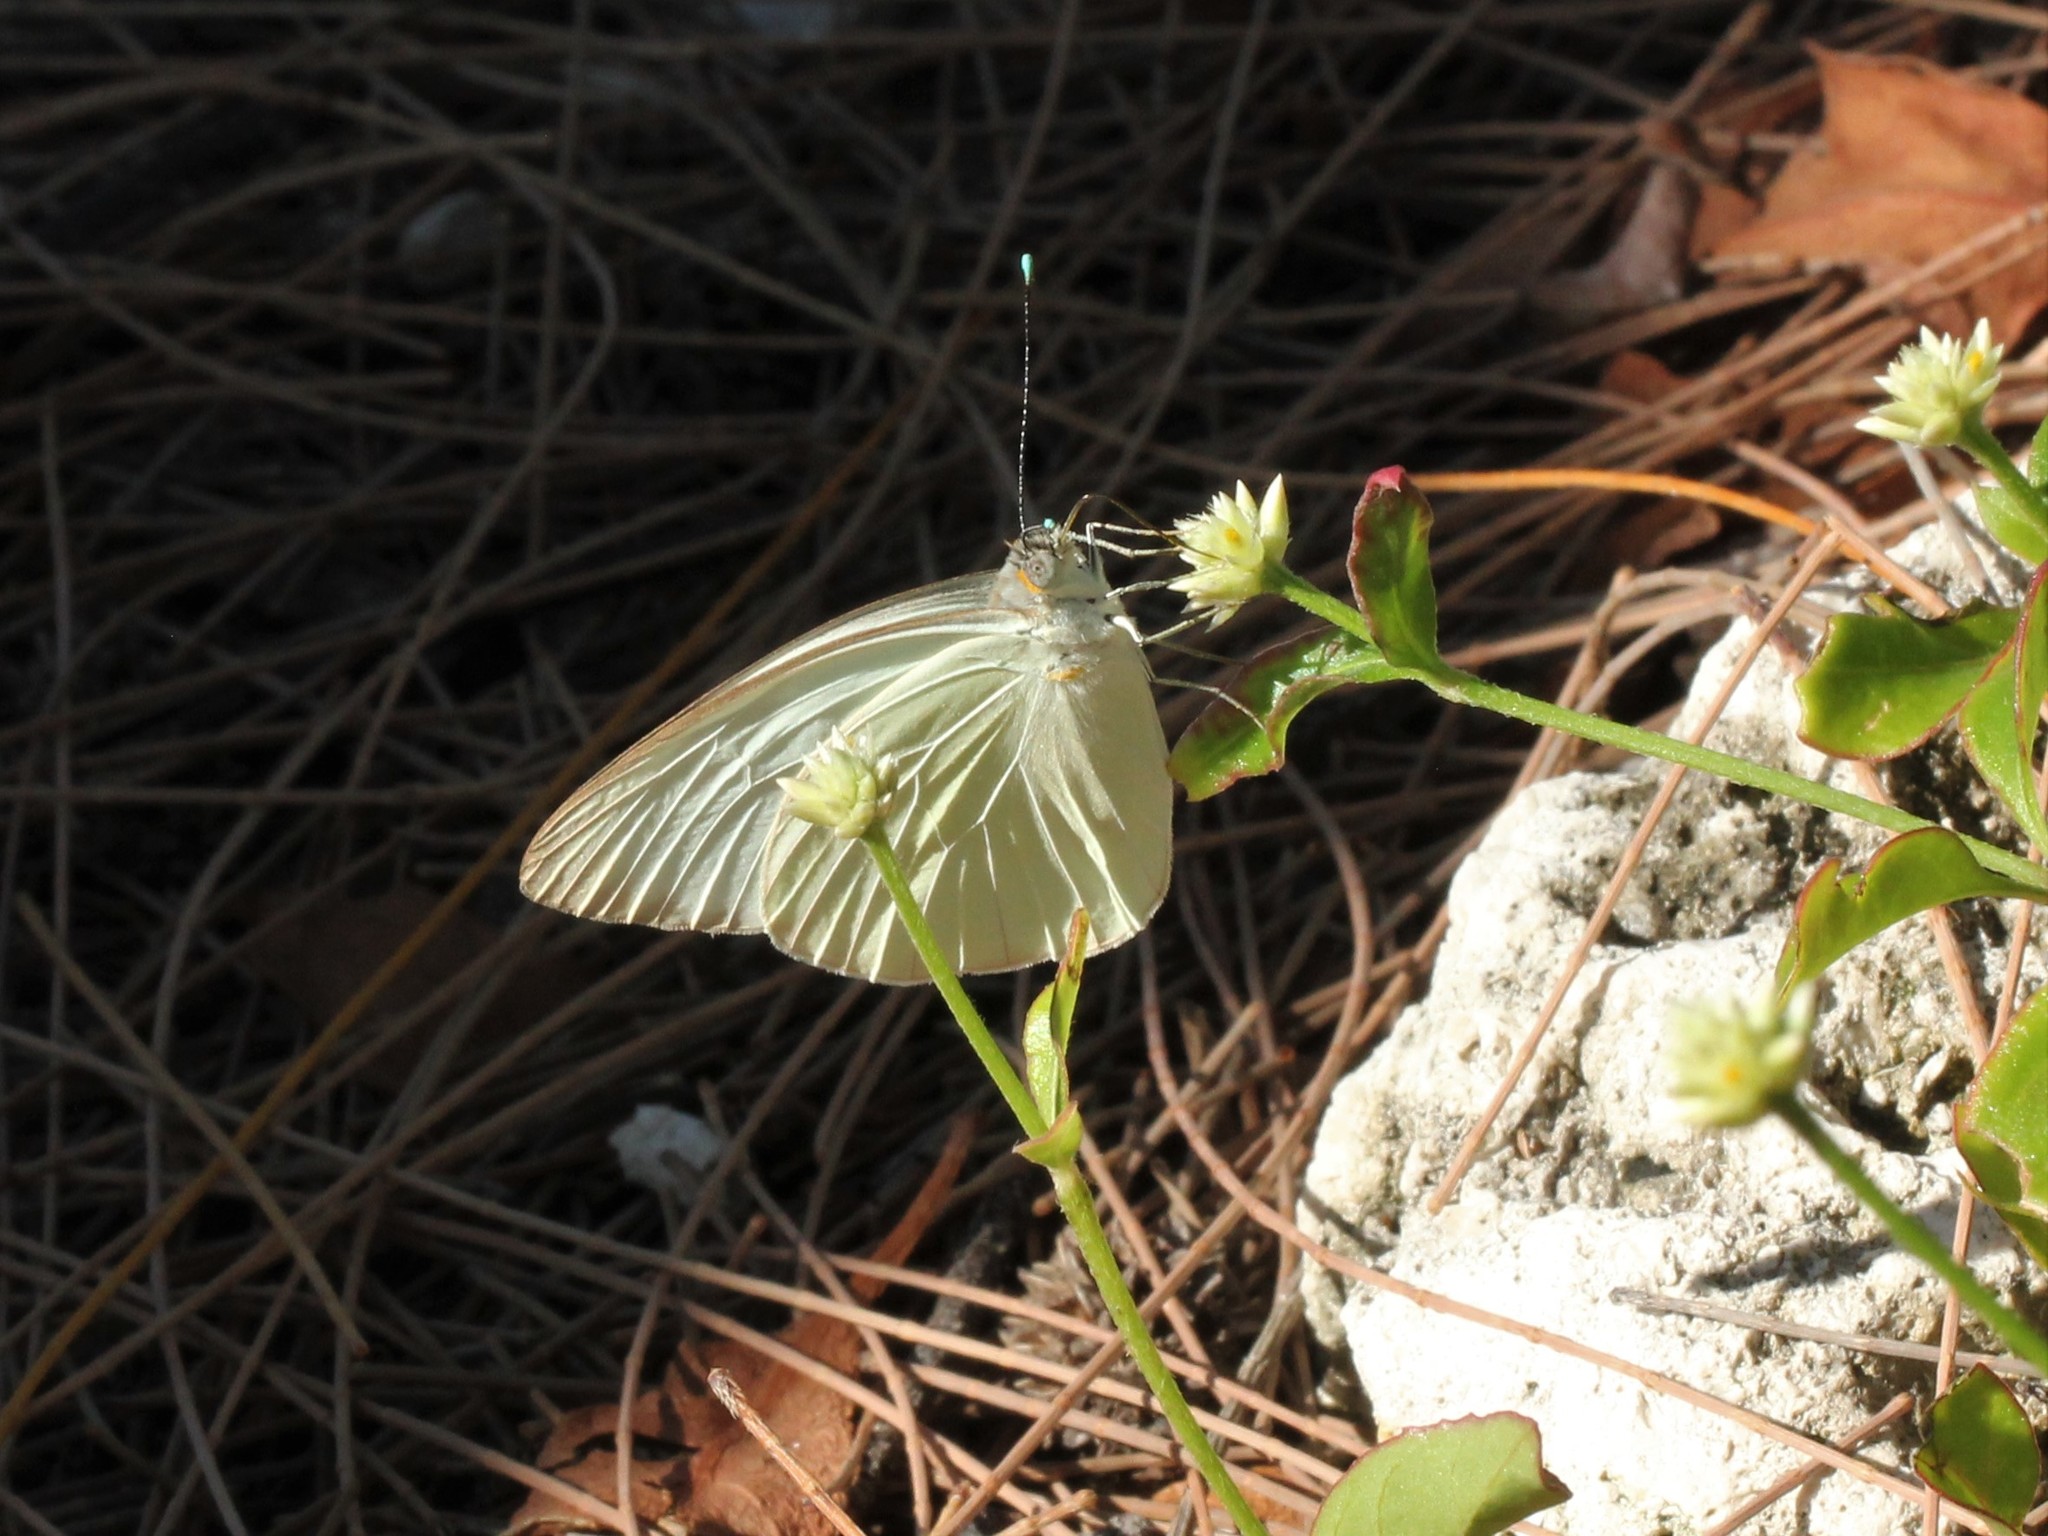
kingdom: Animalia
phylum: Arthropoda
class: Insecta
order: Lepidoptera
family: Pieridae
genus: Ascia
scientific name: Ascia monuste
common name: Great southern white
